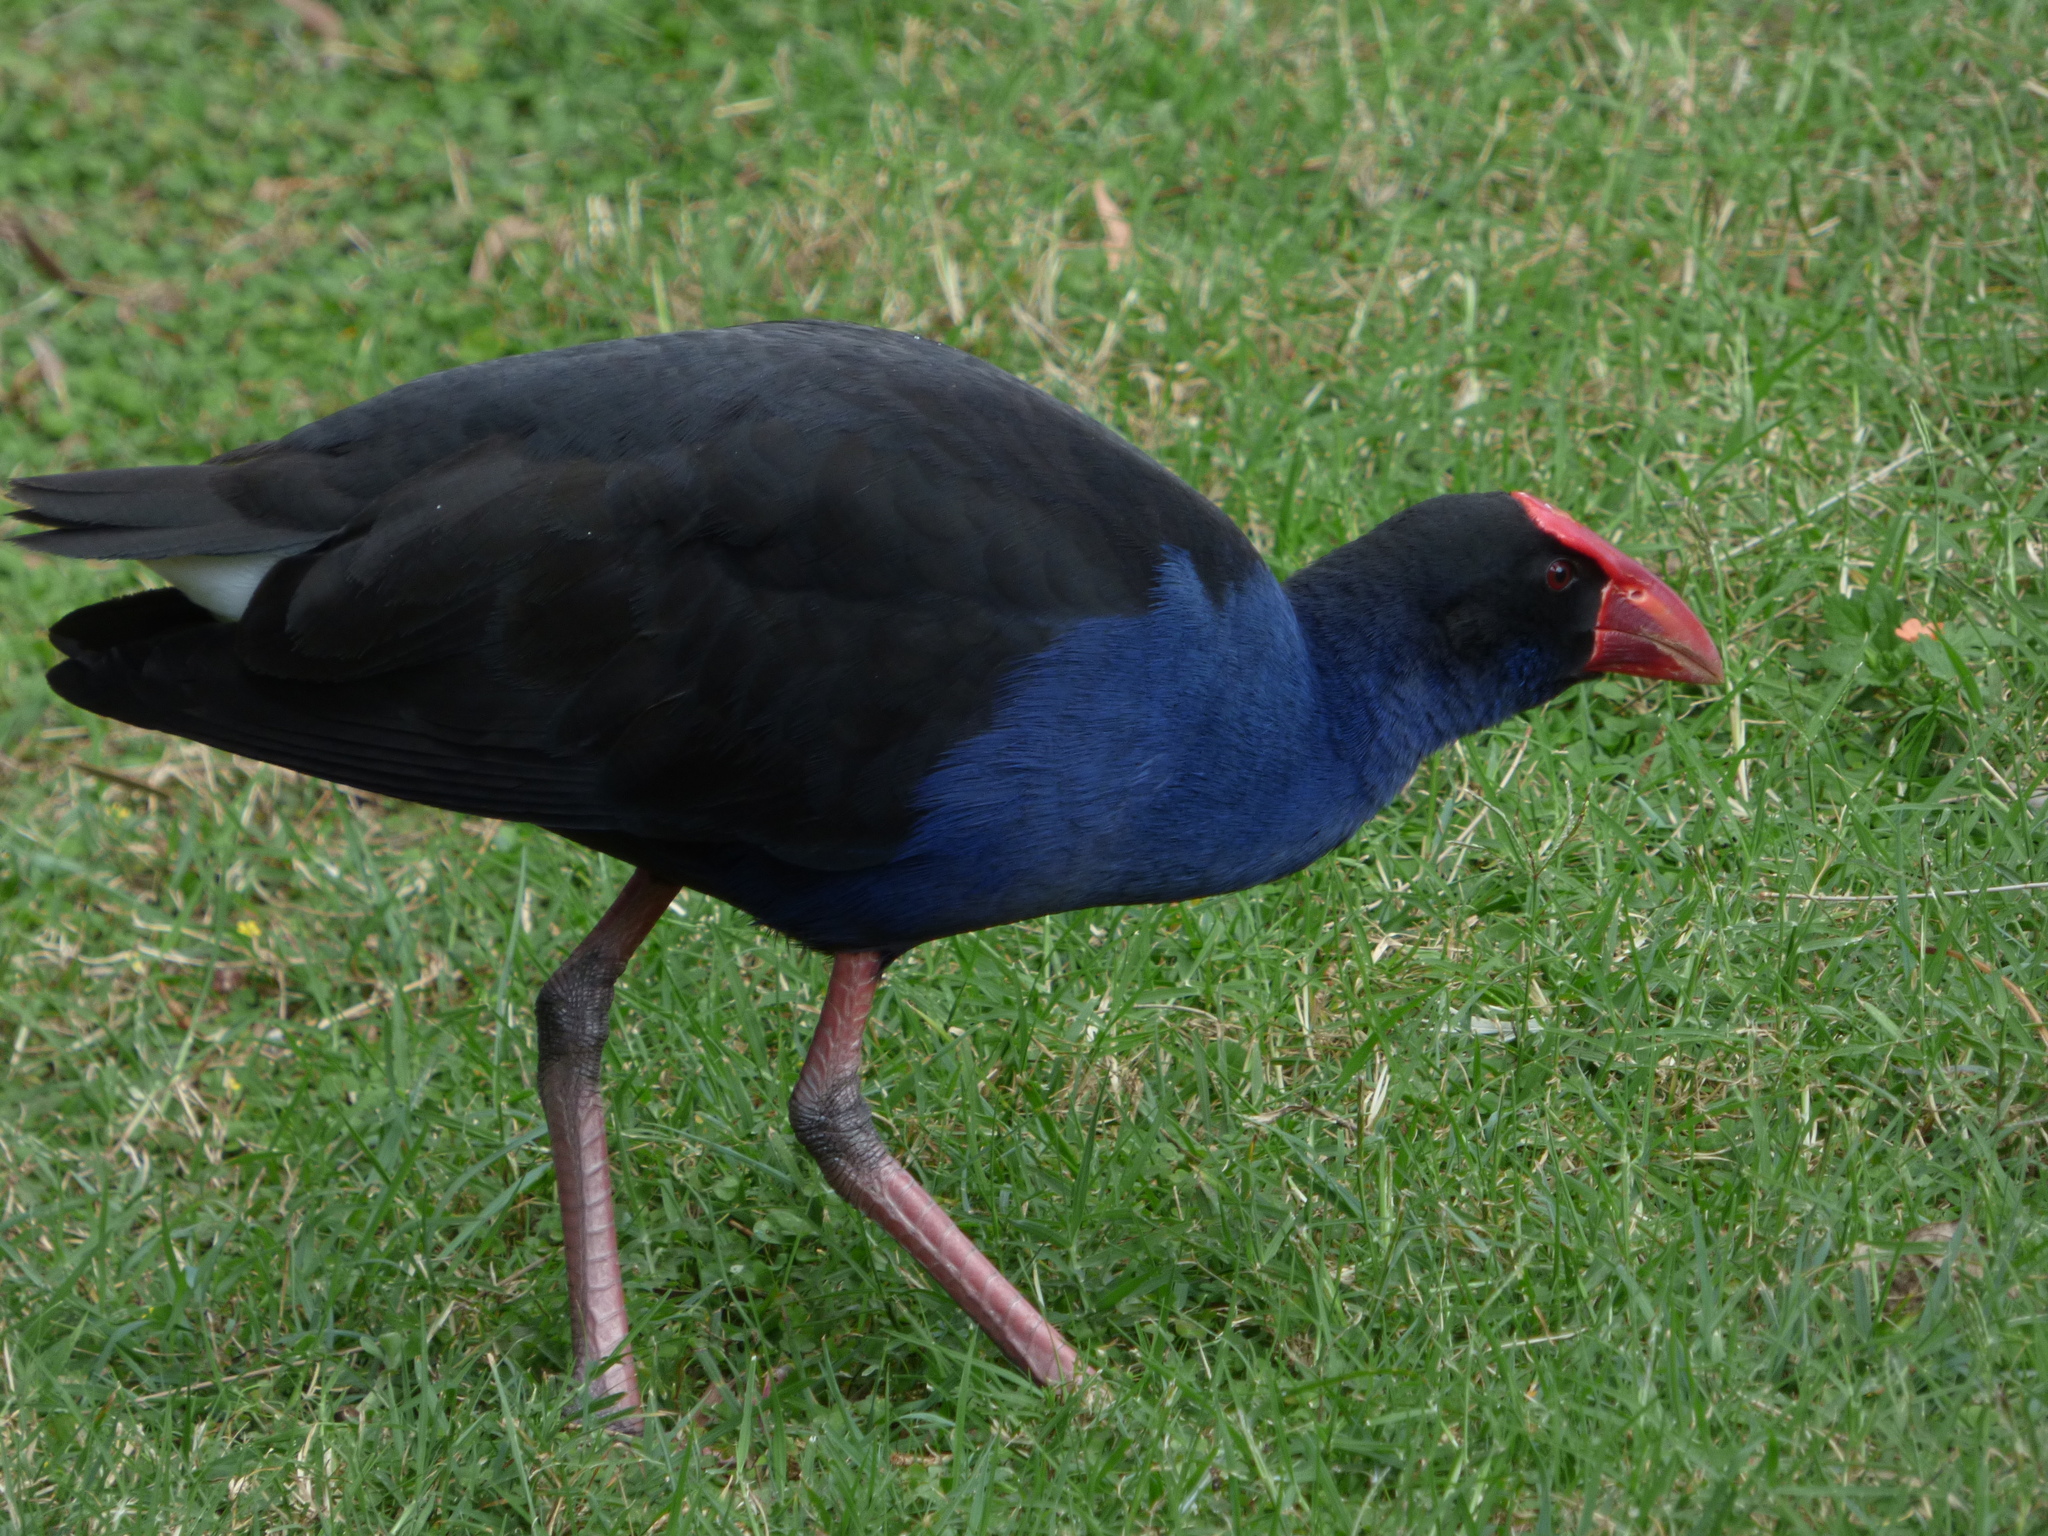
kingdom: Animalia
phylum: Chordata
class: Aves
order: Gruiformes
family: Rallidae
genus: Porphyrio
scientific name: Porphyrio melanotus
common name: Australasian swamphen
